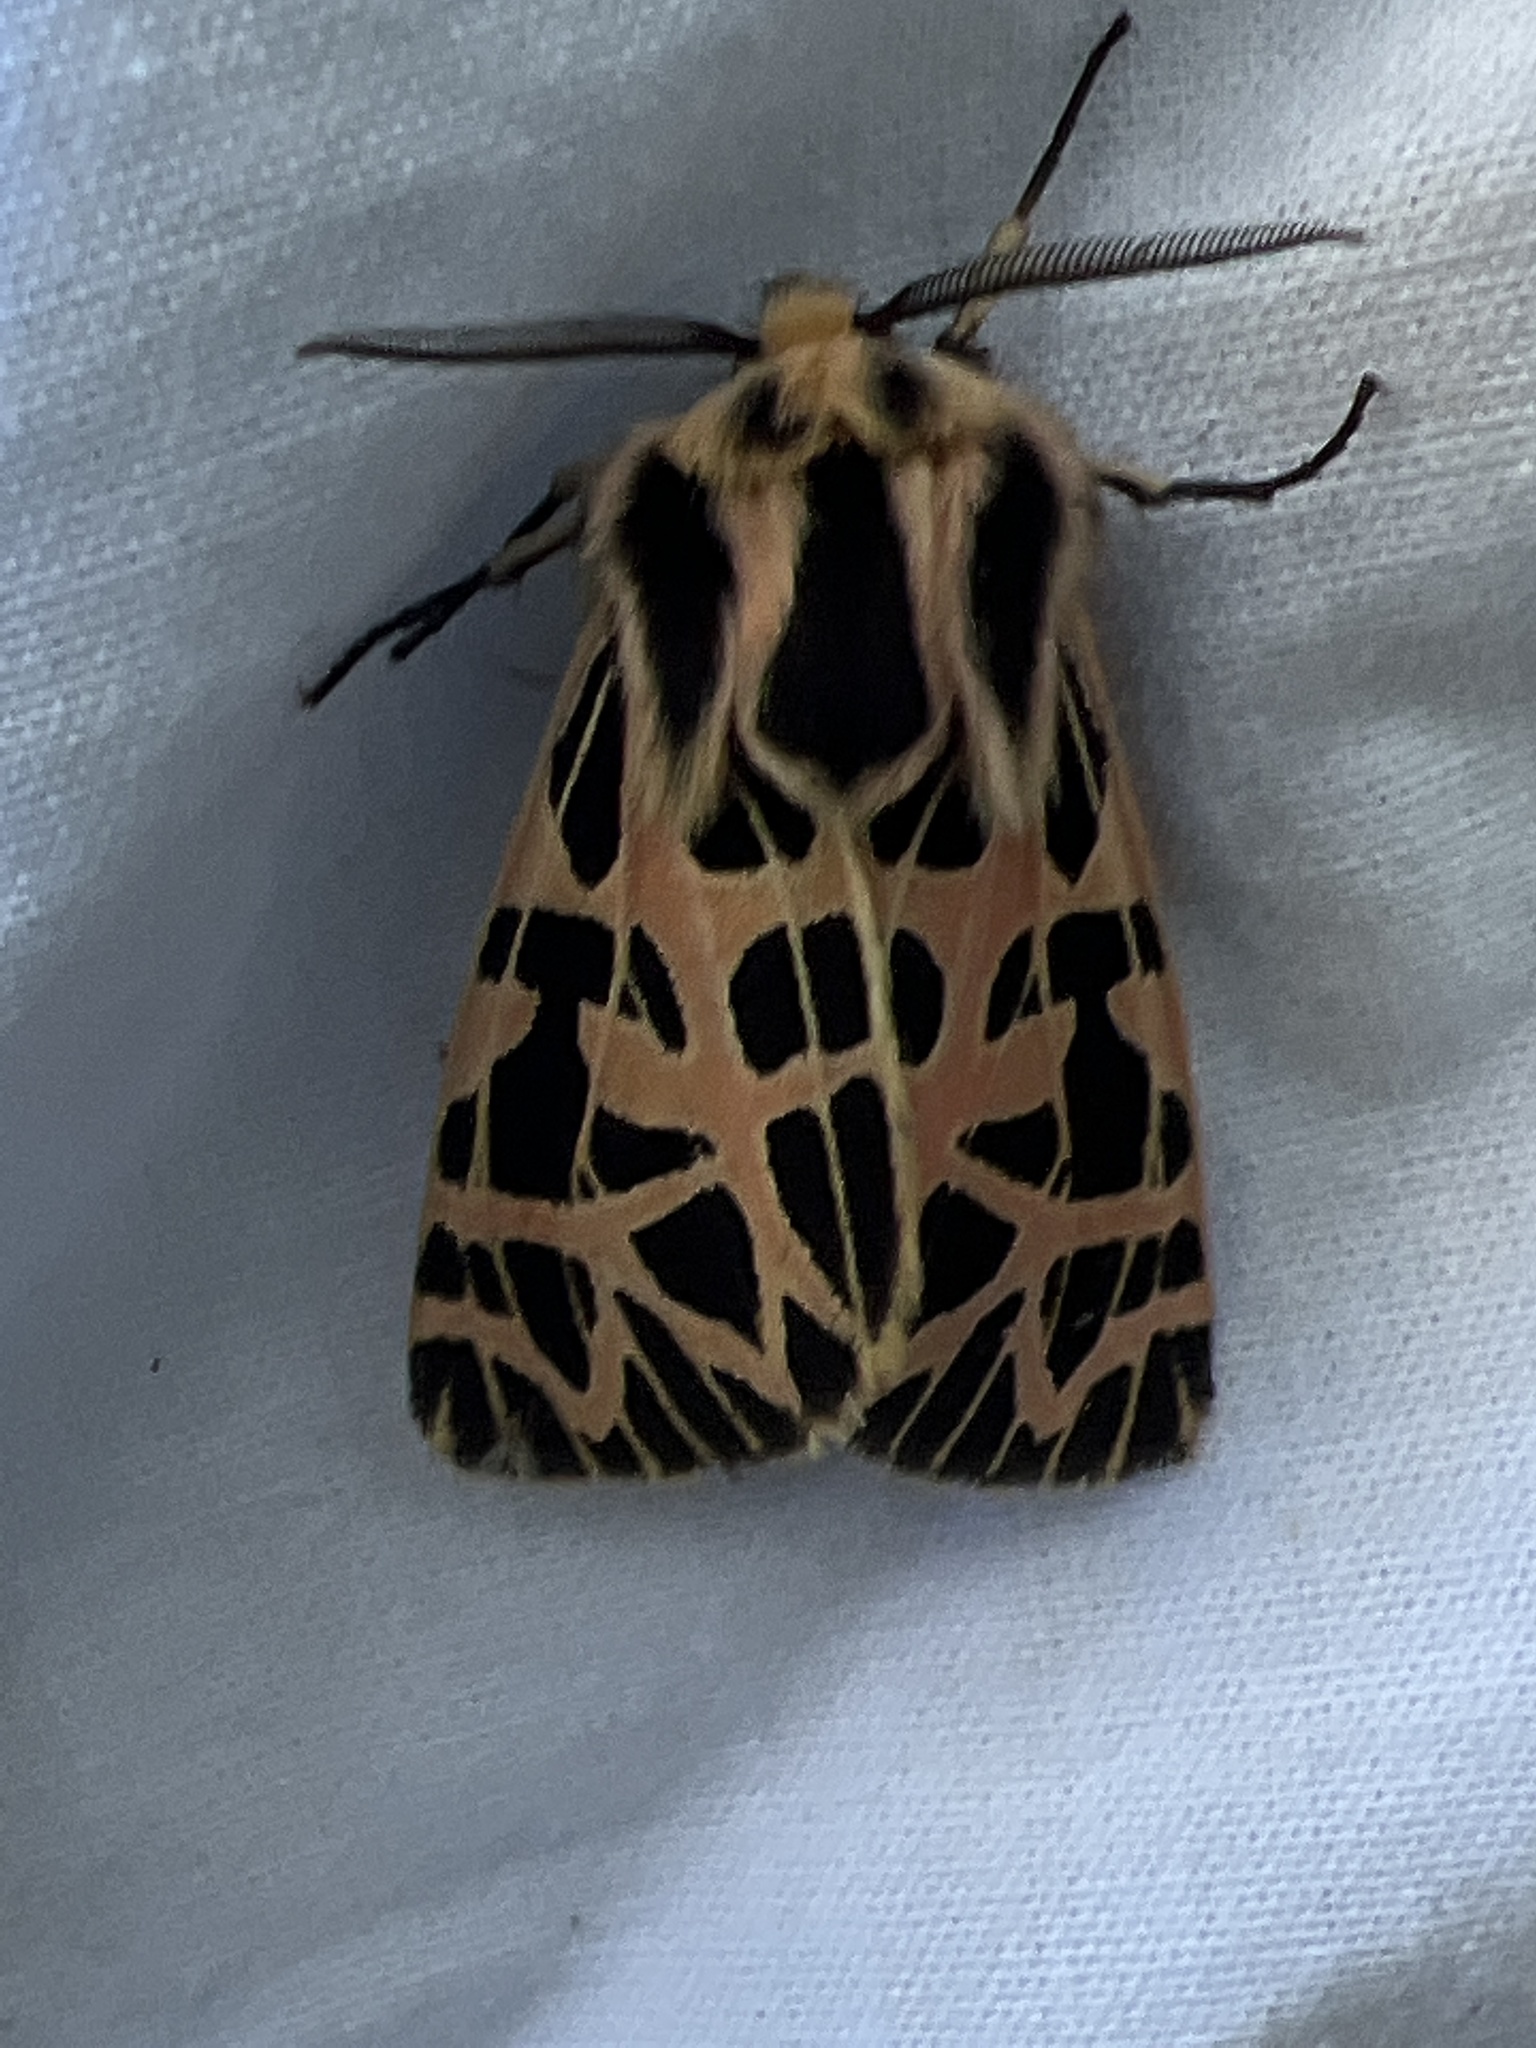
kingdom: Animalia
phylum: Arthropoda
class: Insecta
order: Lepidoptera
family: Erebidae
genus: Apantesis
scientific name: Apantesis
